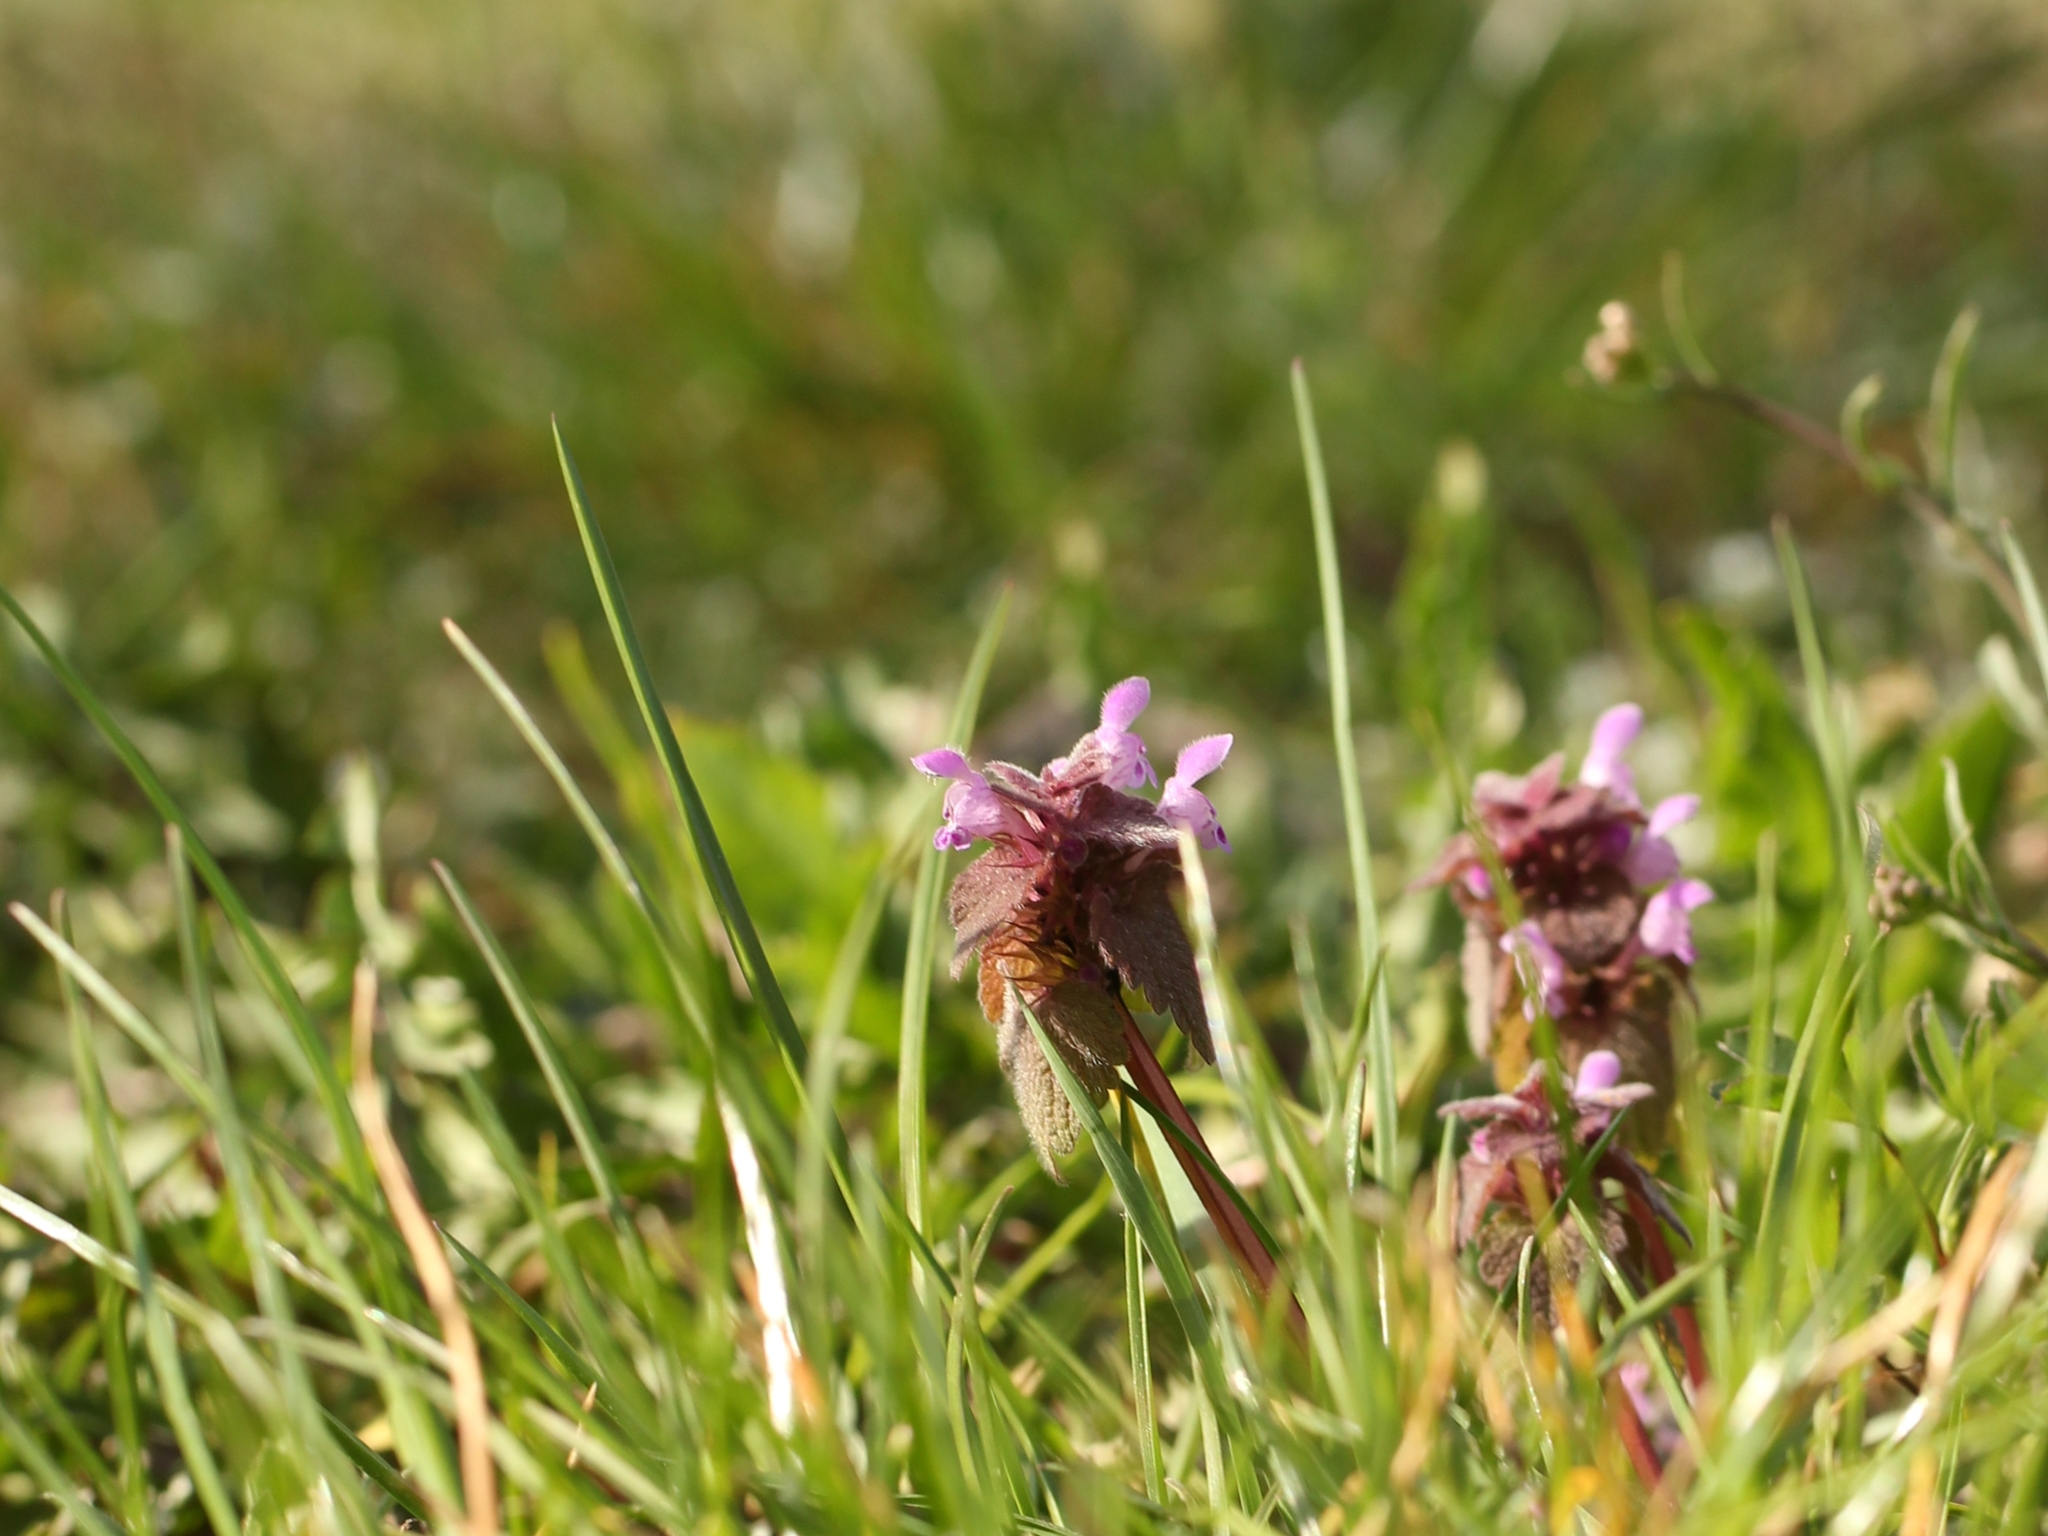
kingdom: Plantae
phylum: Tracheophyta
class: Magnoliopsida
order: Lamiales
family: Lamiaceae
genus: Lamium
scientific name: Lamium purpureum
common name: Red dead-nettle
